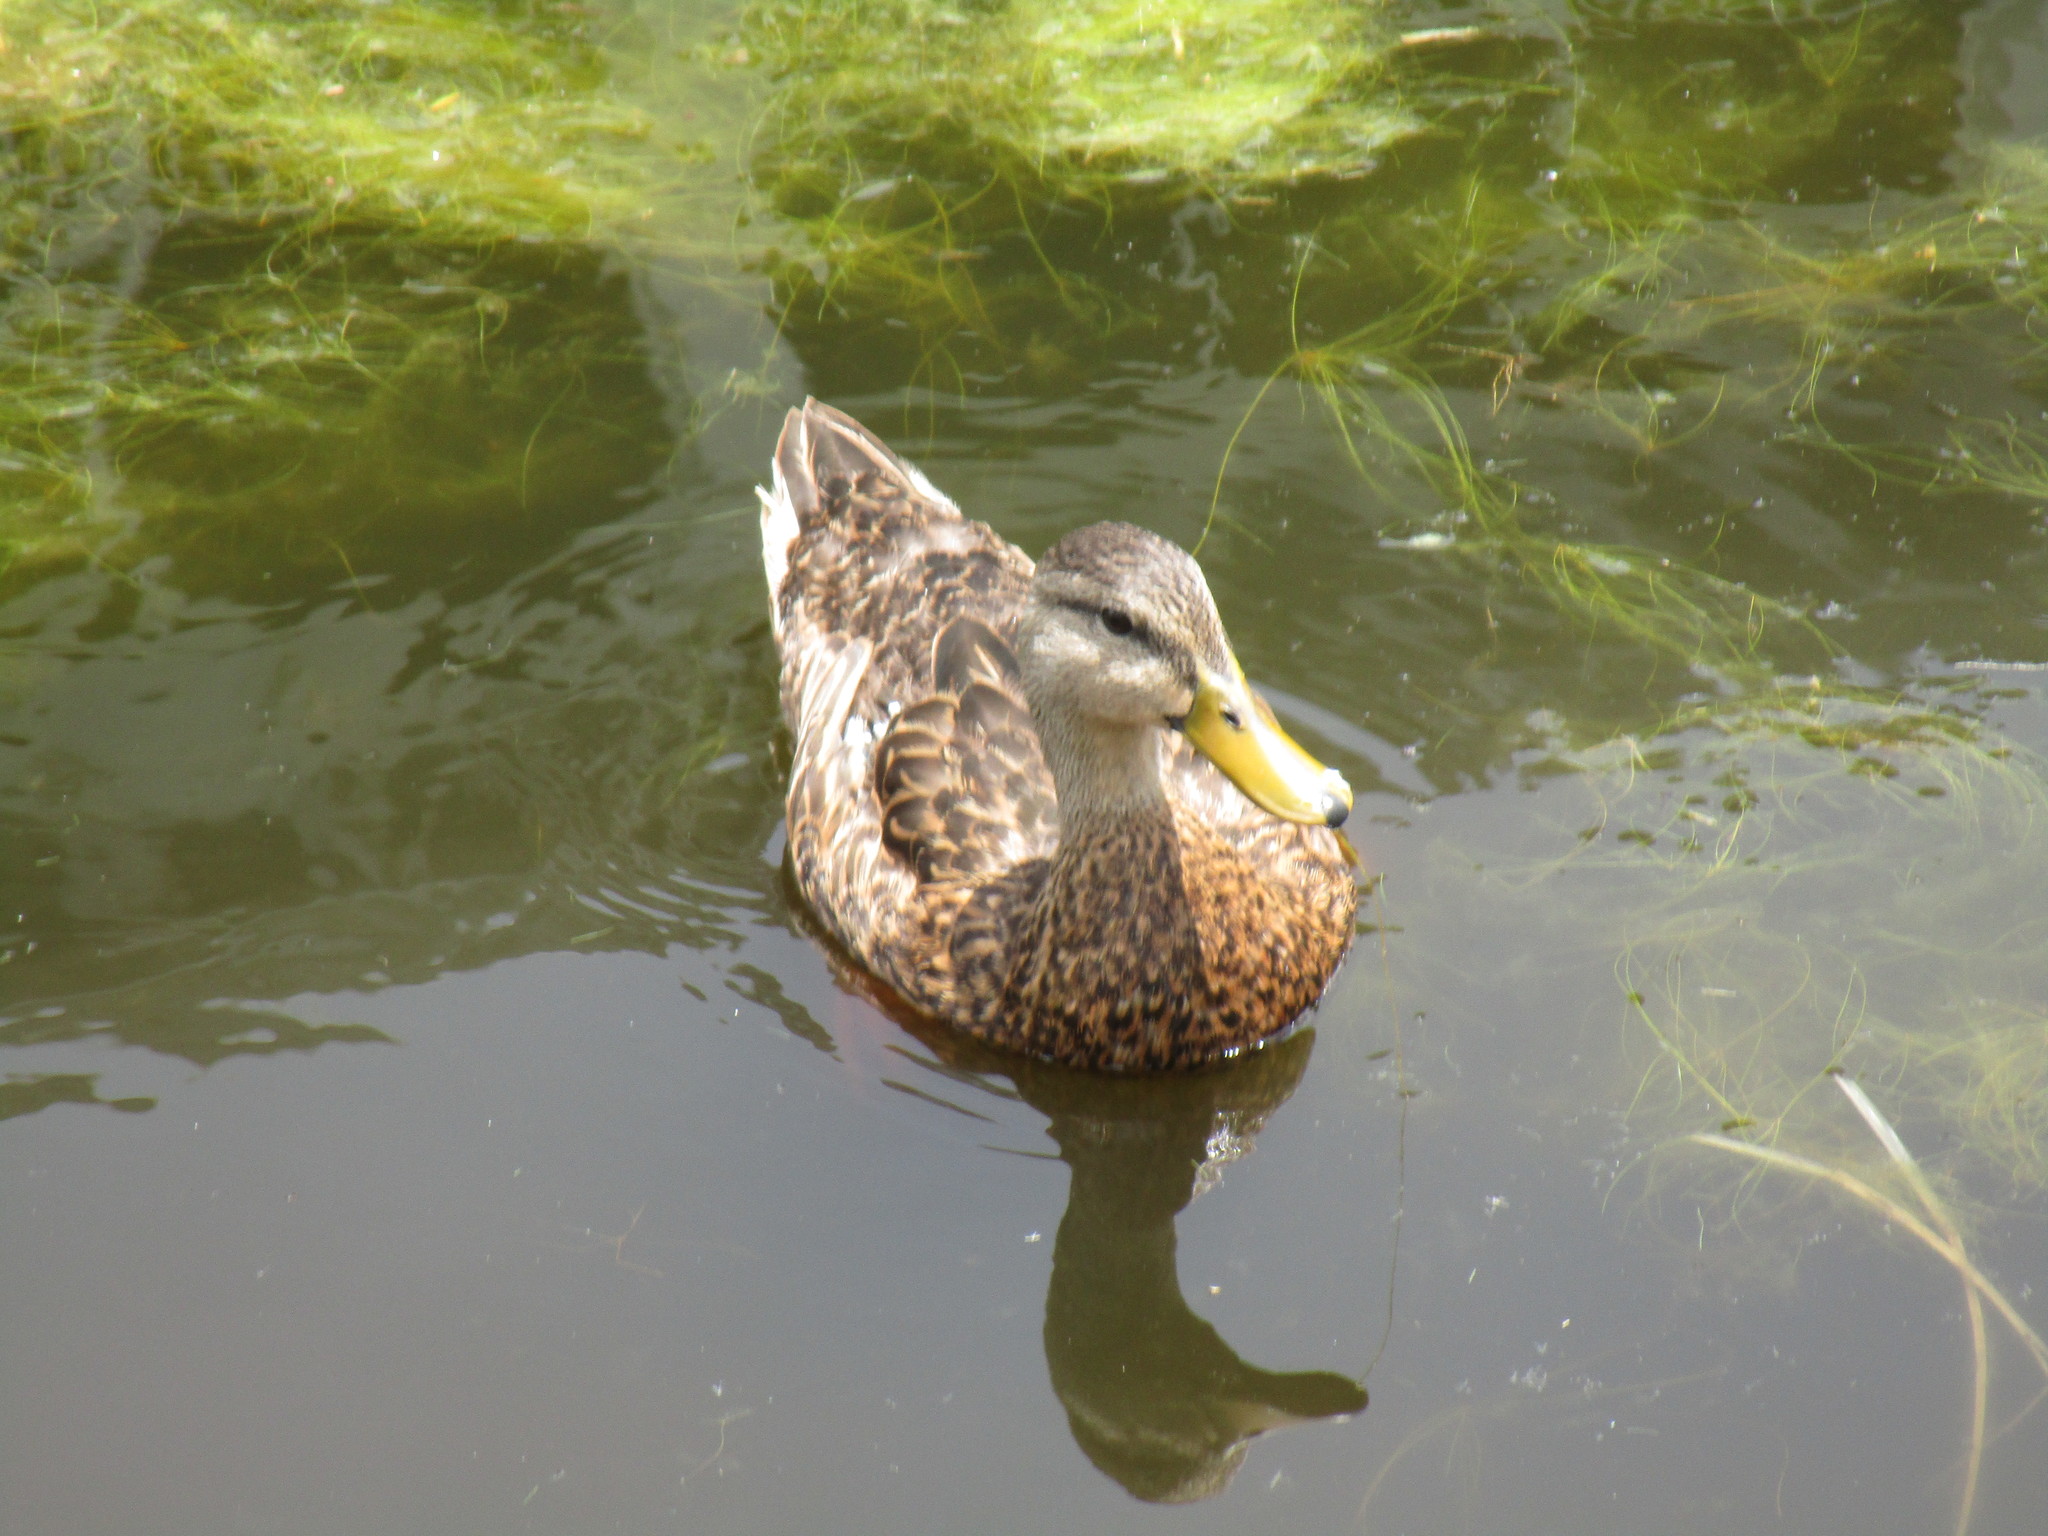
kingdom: Animalia
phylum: Chordata
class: Aves
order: Anseriformes
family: Anatidae
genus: Anas
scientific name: Anas
